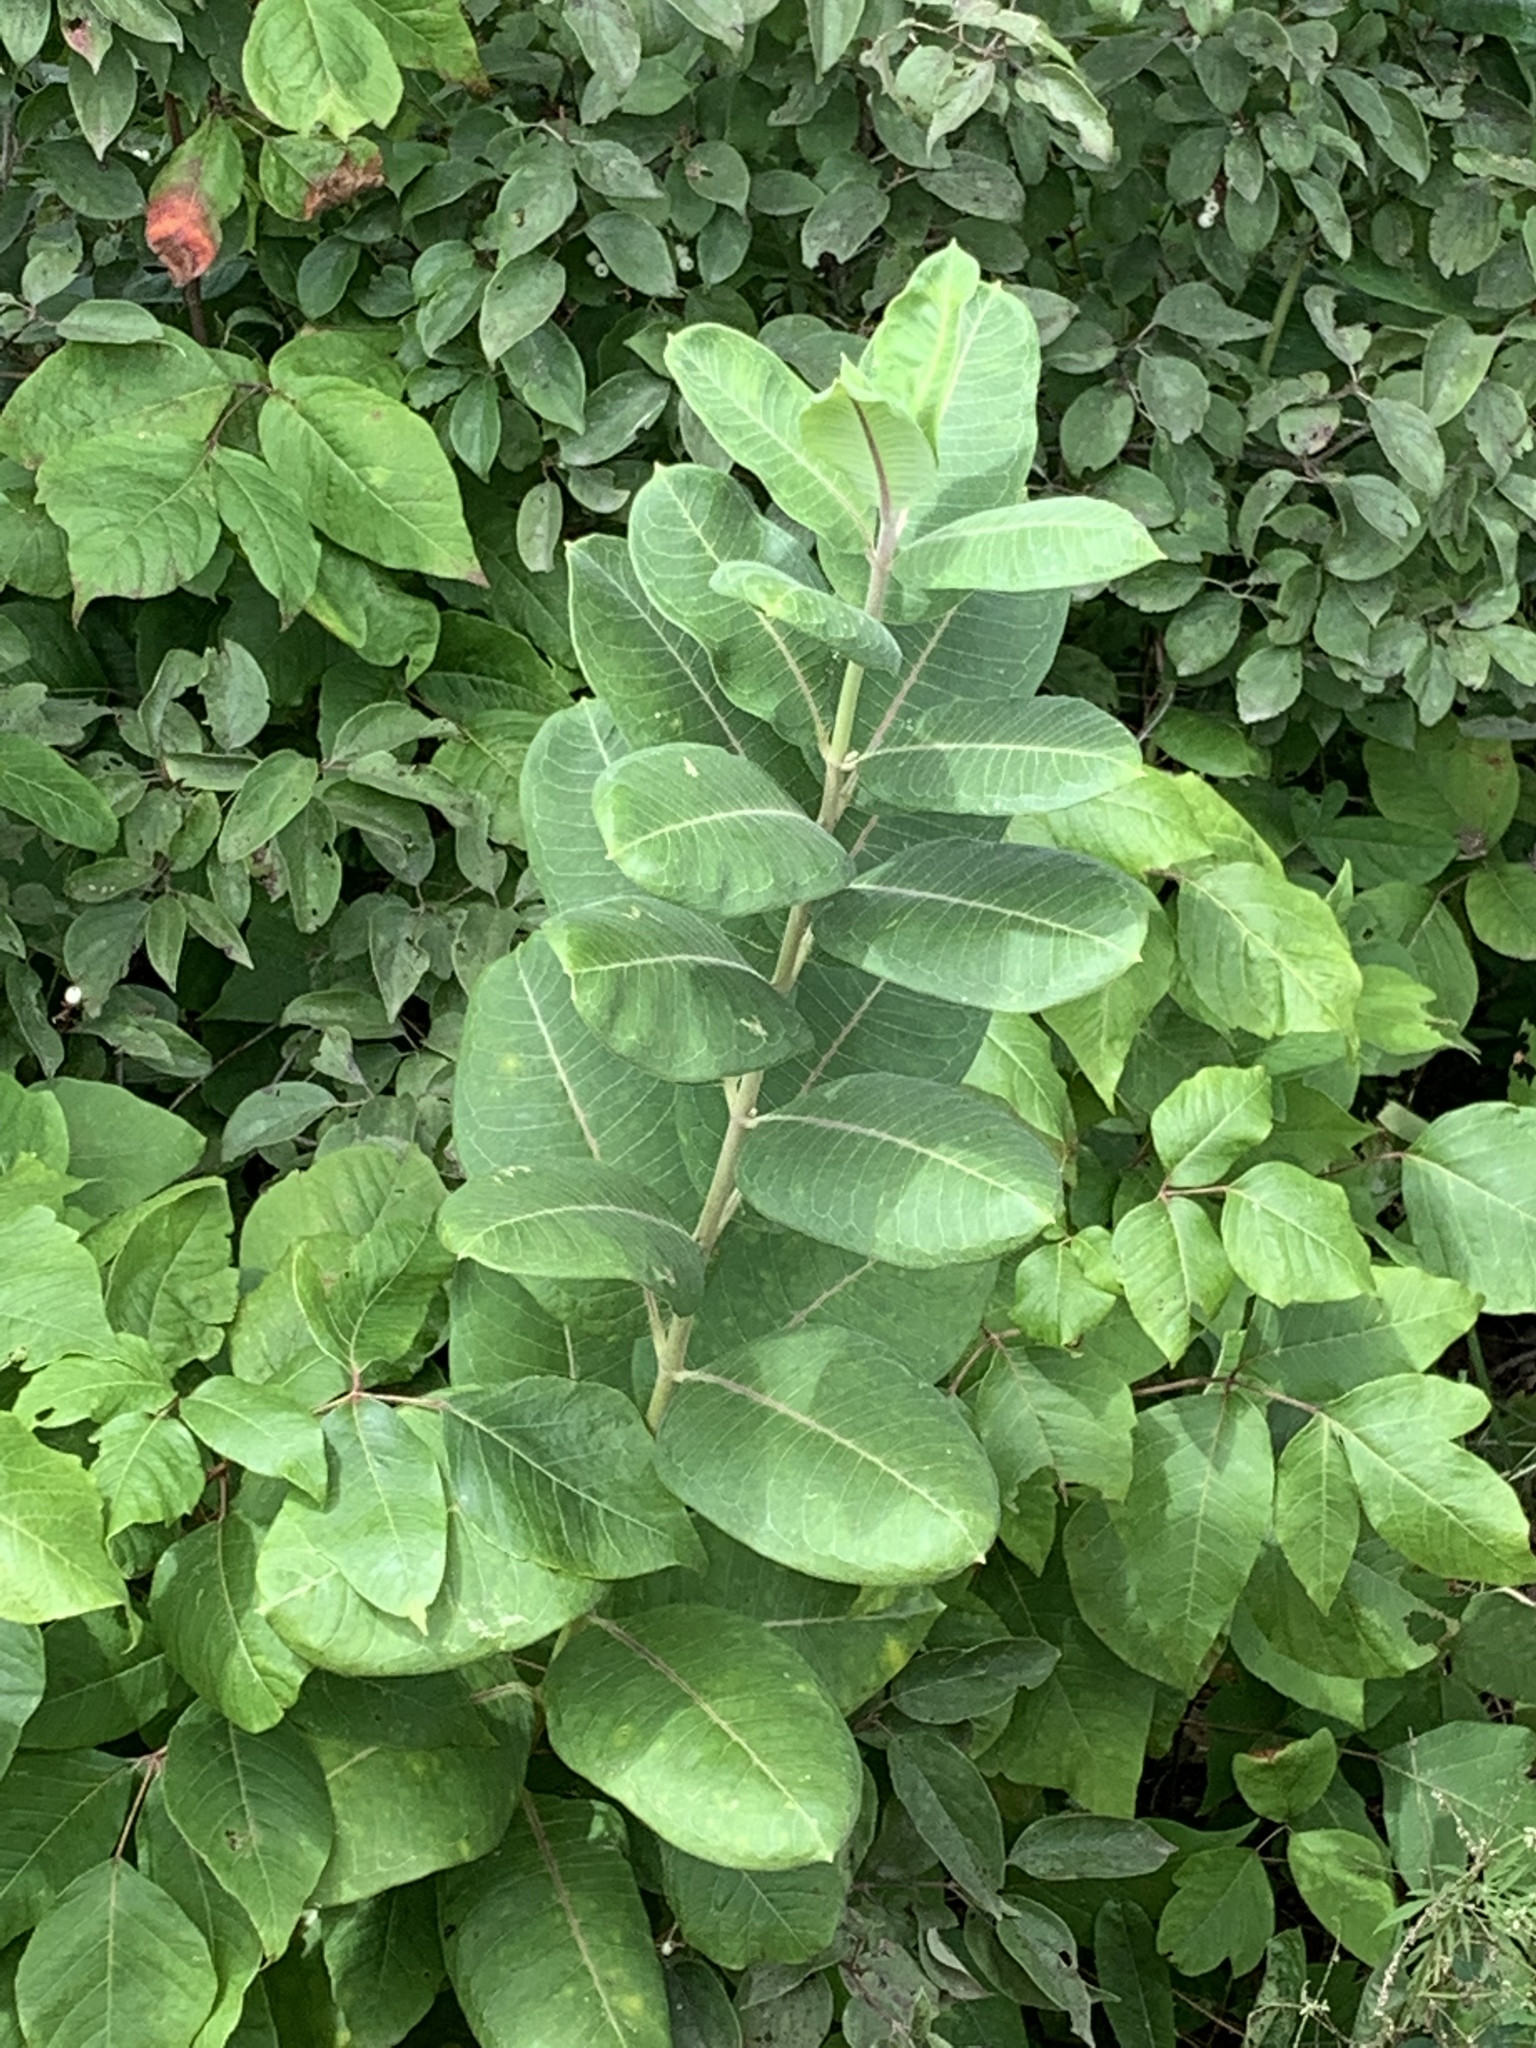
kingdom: Plantae
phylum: Tracheophyta
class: Magnoliopsida
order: Gentianales
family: Apocynaceae
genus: Asclepias
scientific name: Asclepias syriaca
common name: Common milkweed
